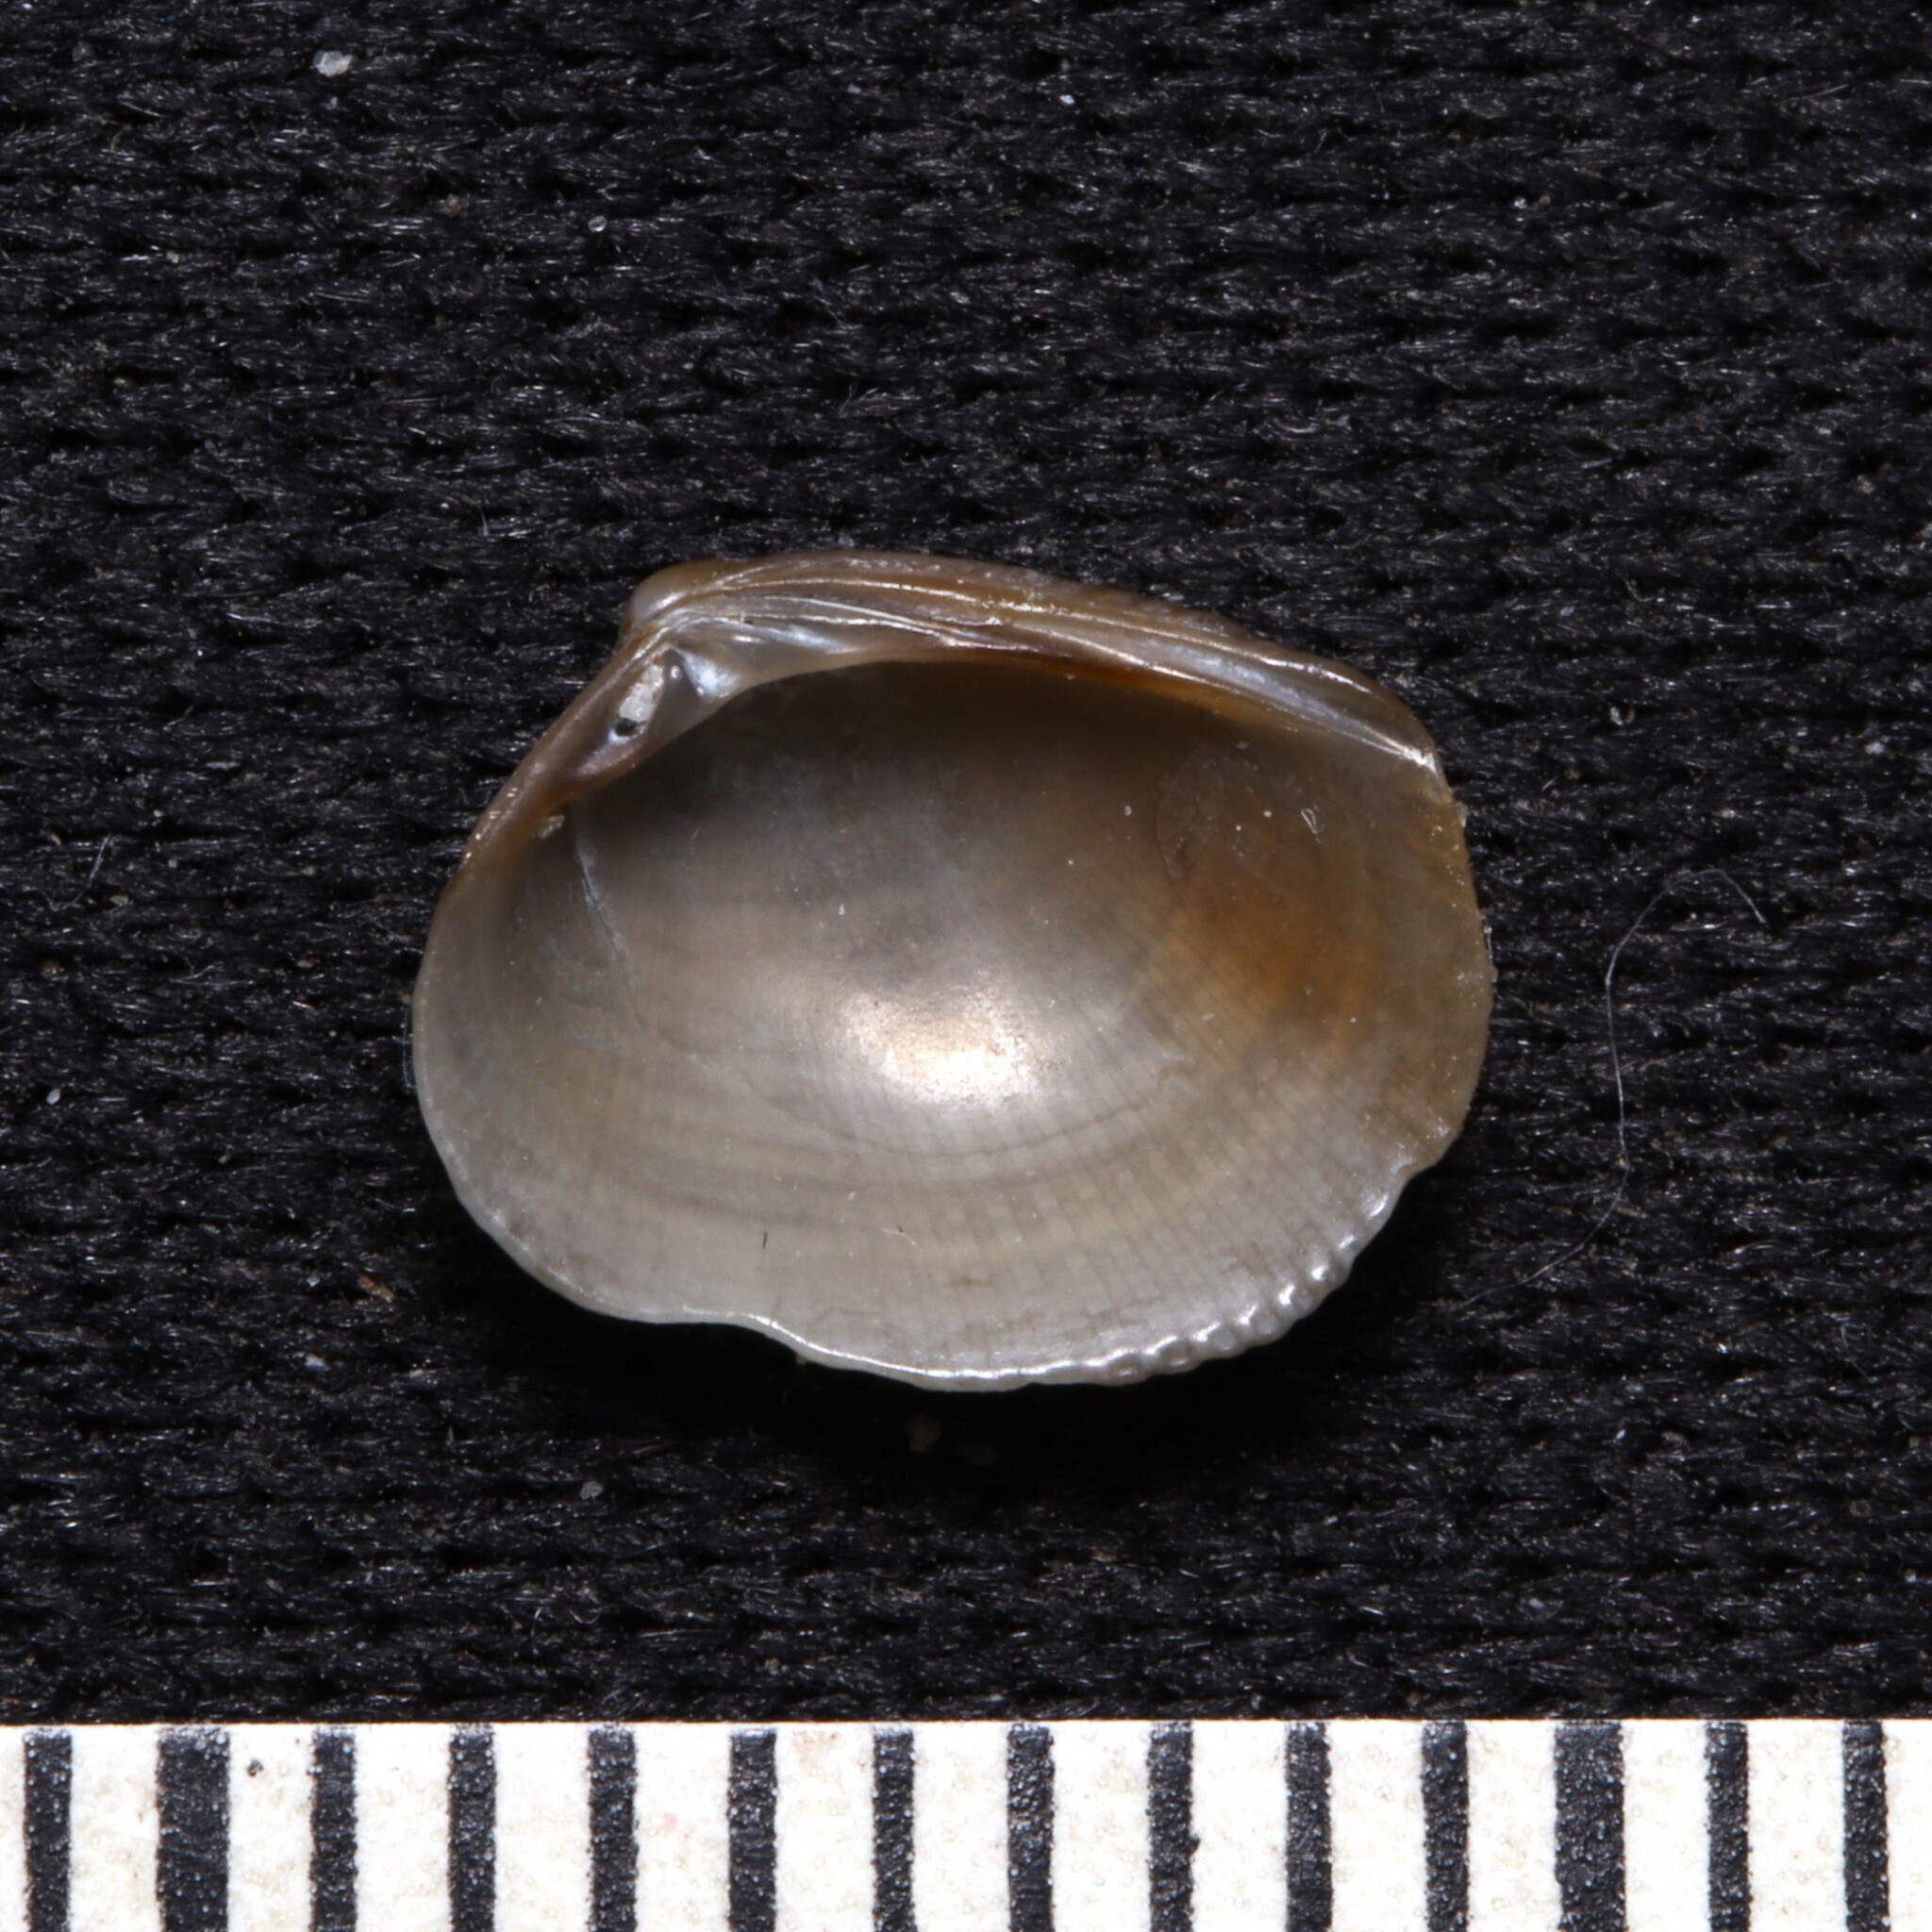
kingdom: Animalia
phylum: Mollusca
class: Bivalvia
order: Venerida
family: Veneridae
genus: Chioneryx
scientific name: Chioneryx grus
